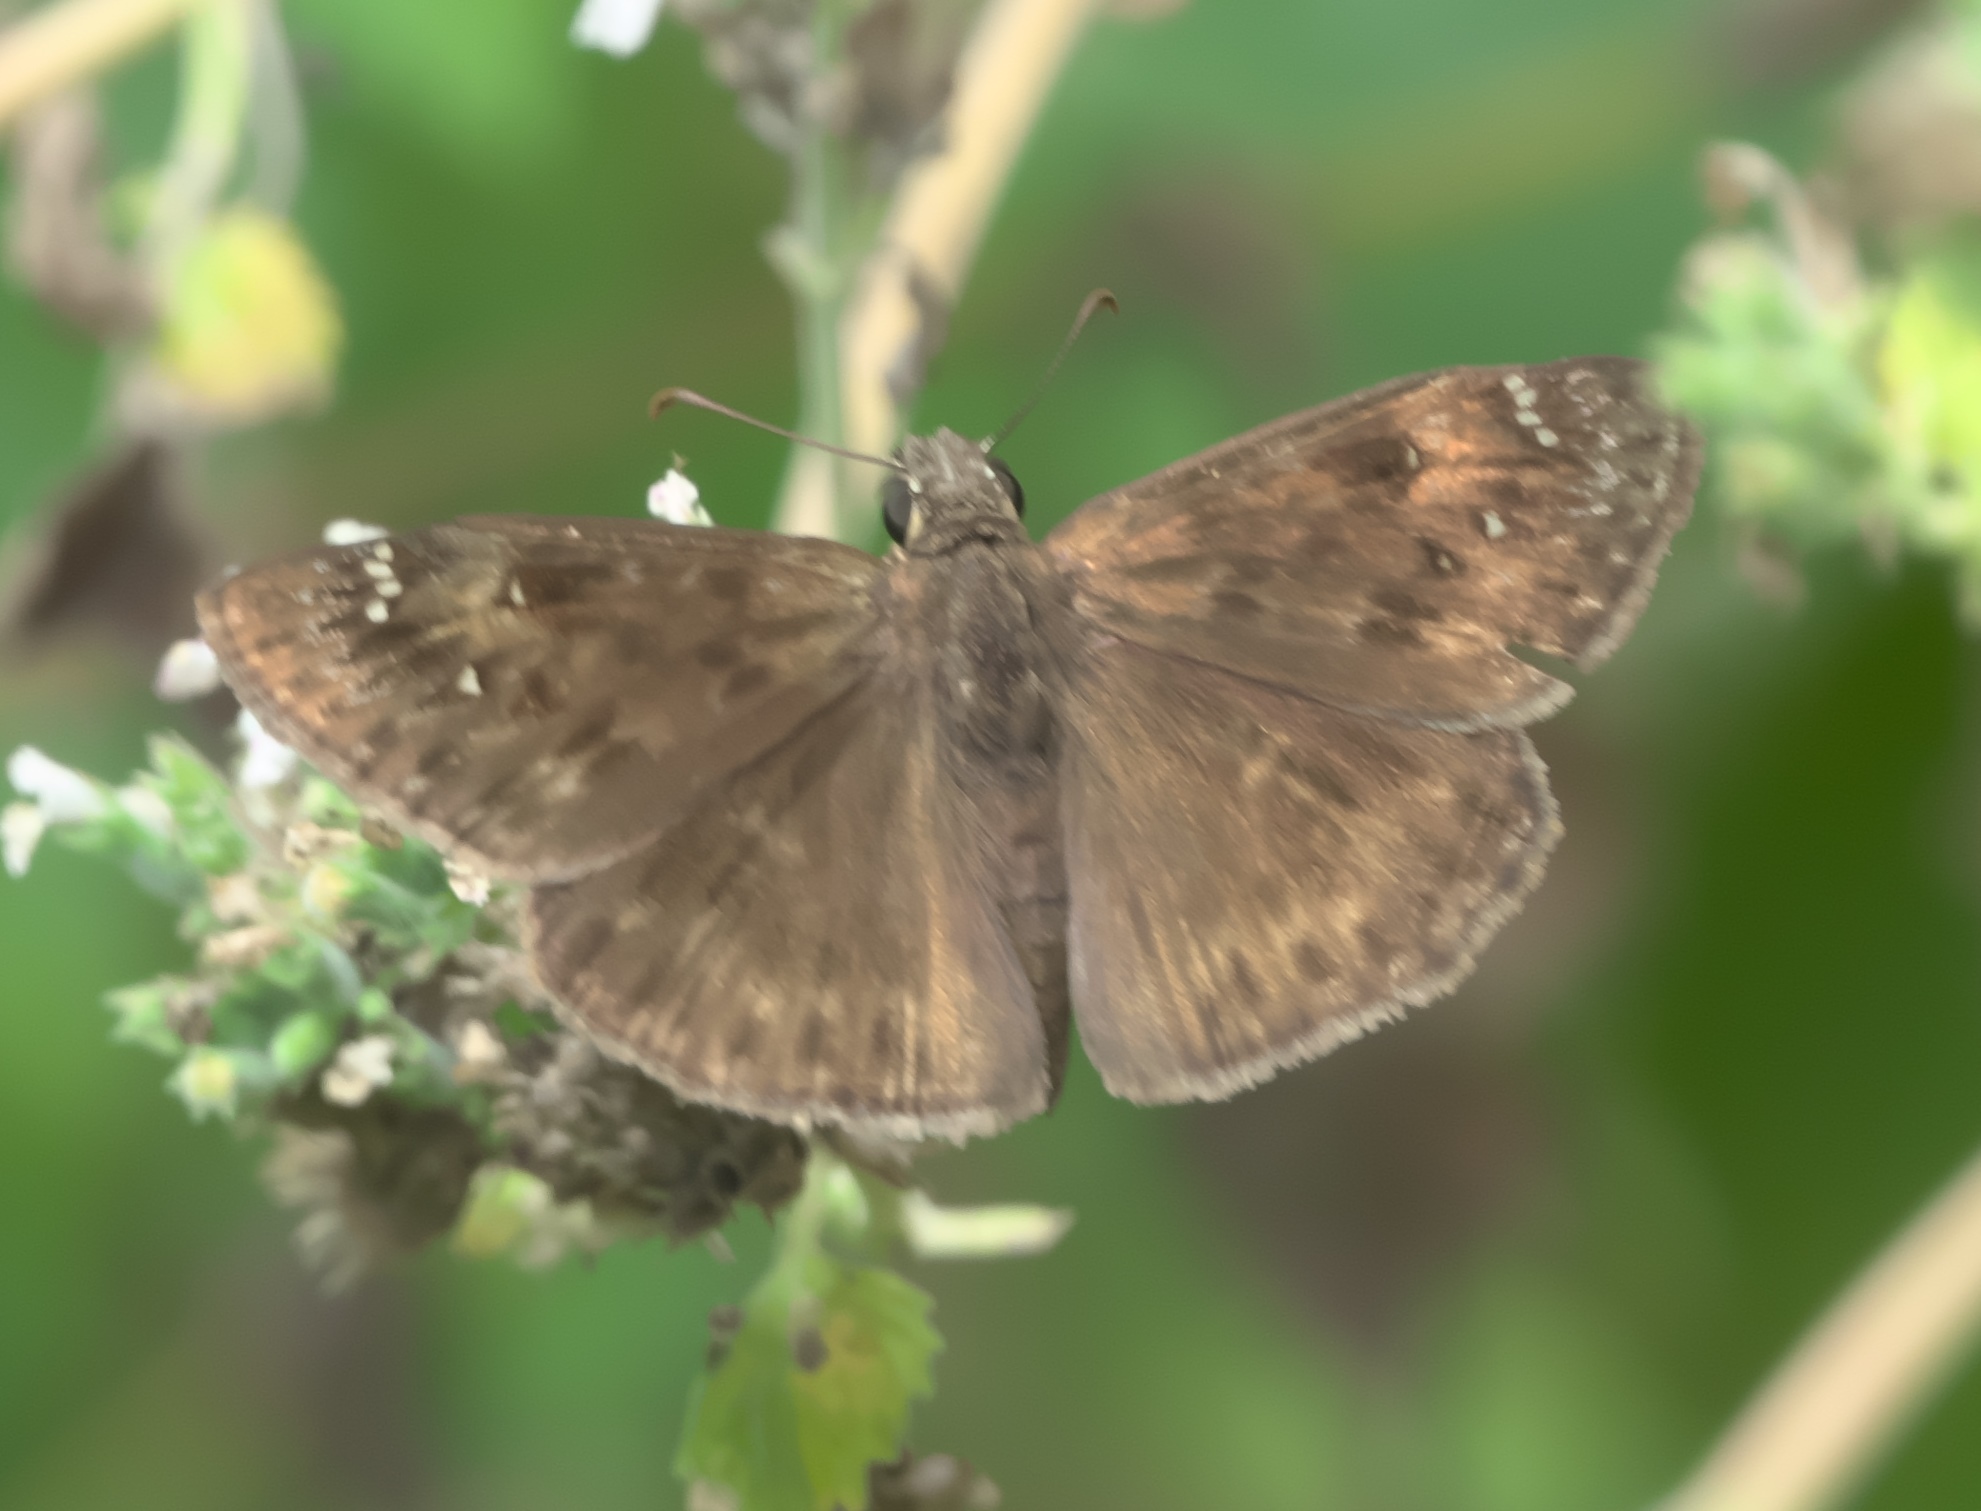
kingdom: Animalia
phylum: Arthropoda
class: Insecta
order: Lepidoptera
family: Hesperiidae
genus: Erynnis
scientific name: Erynnis horatius
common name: Horace's duskywing
